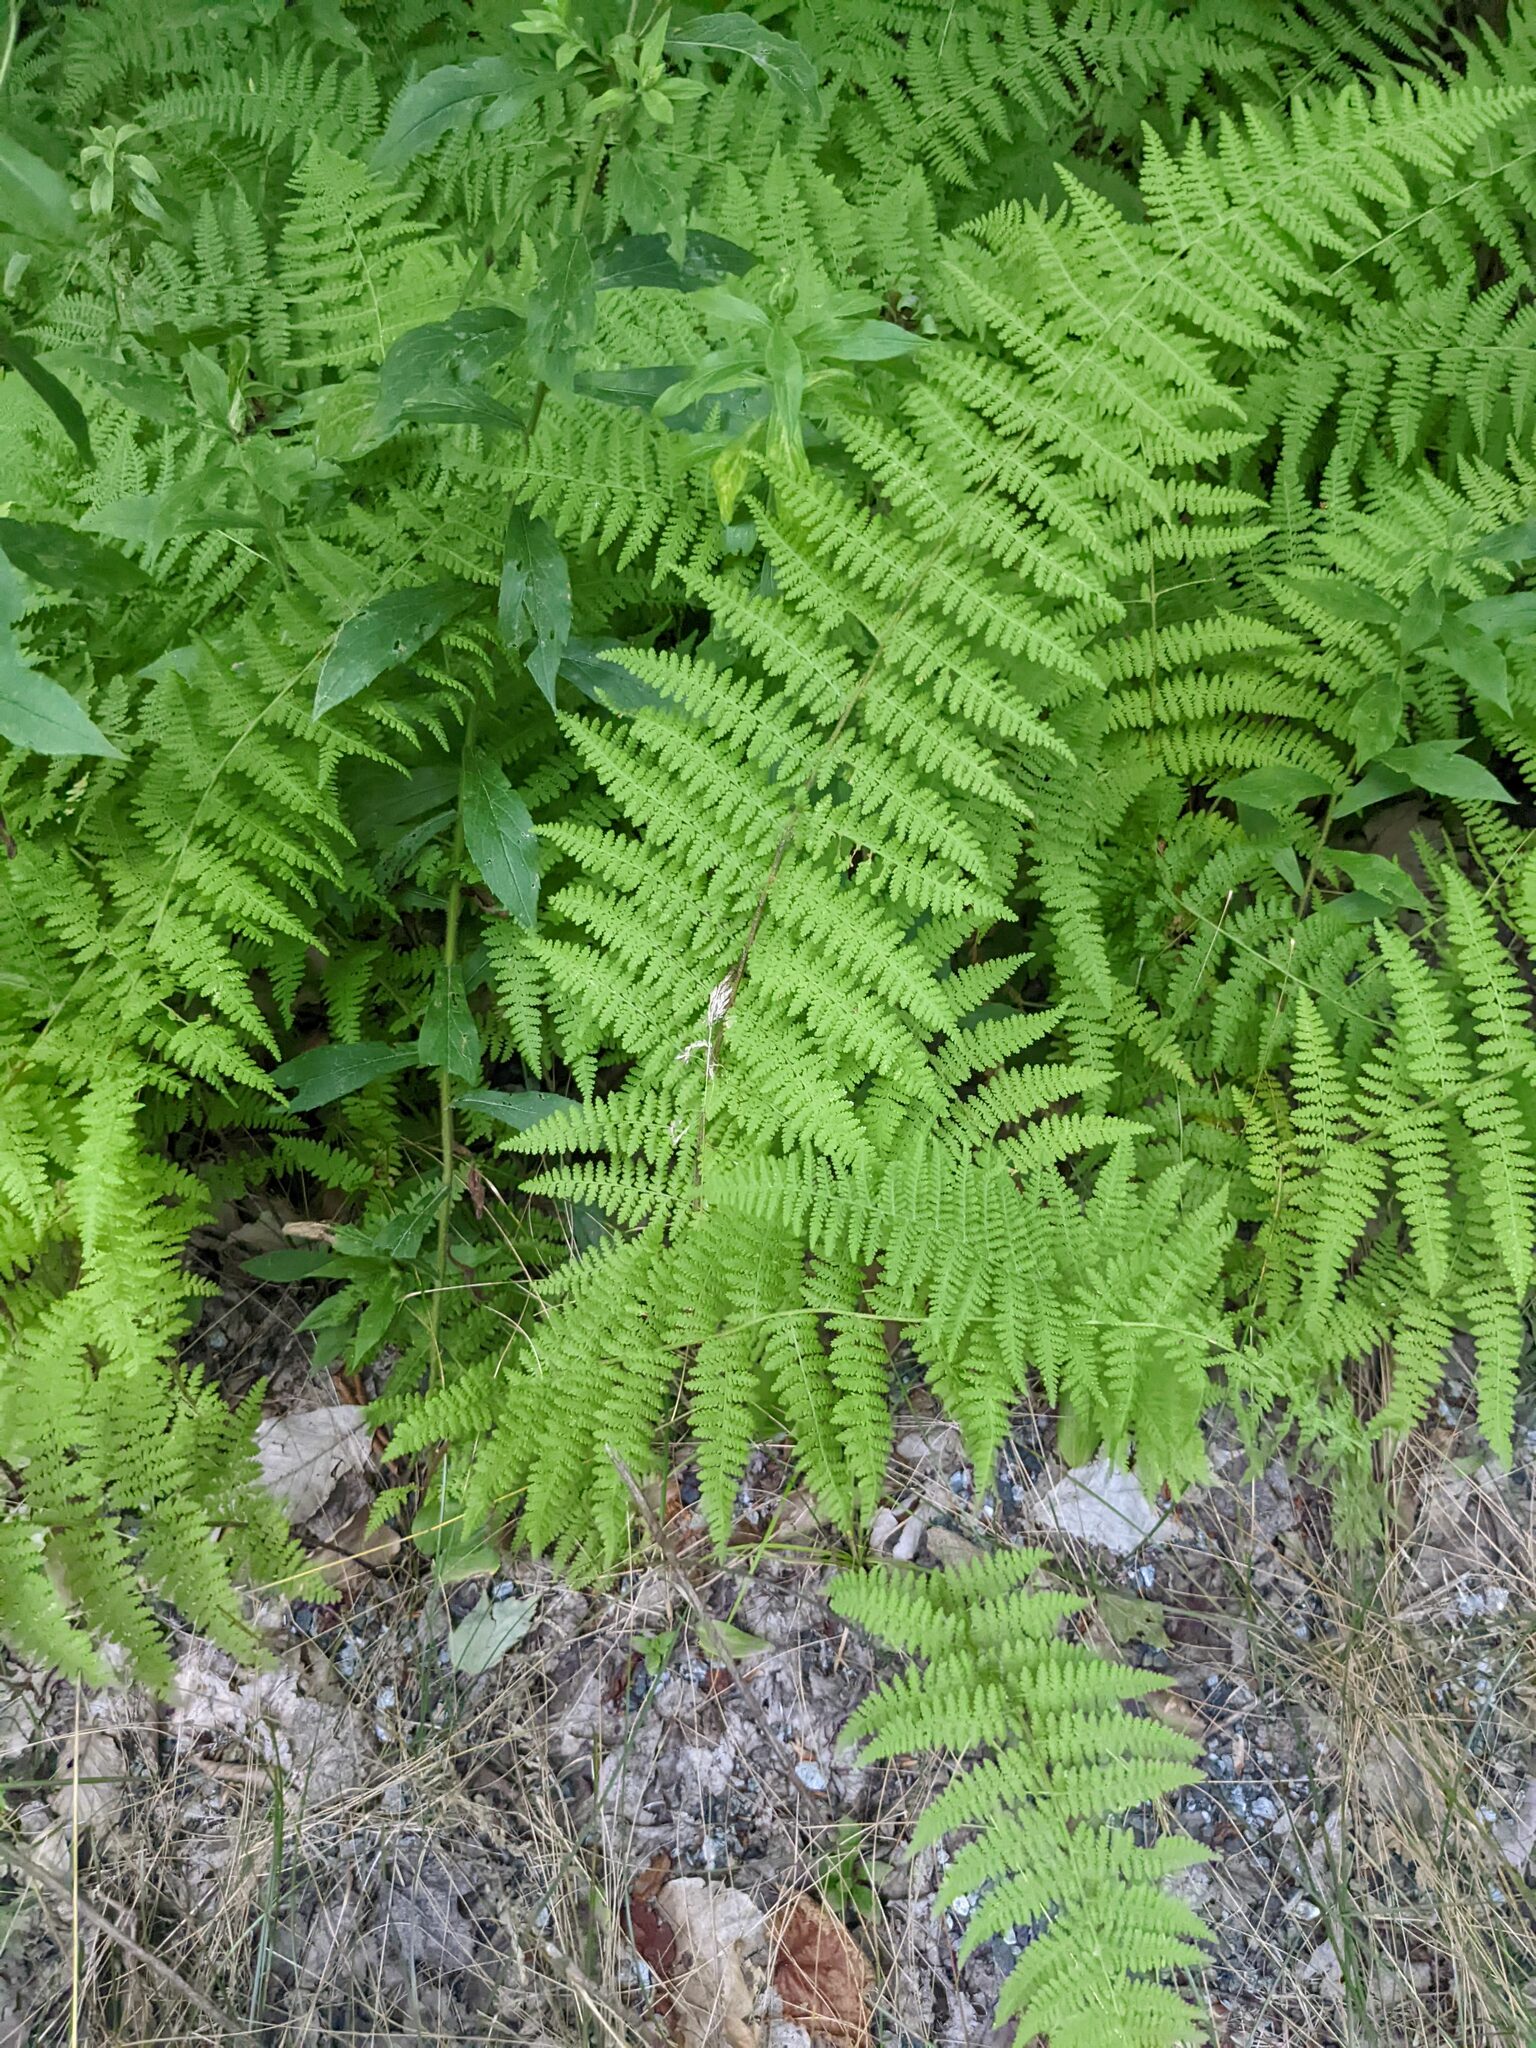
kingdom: Plantae
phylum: Tracheophyta
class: Polypodiopsida
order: Polypodiales
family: Dennstaedtiaceae
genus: Sitobolium
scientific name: Sitobolium punctilobum
